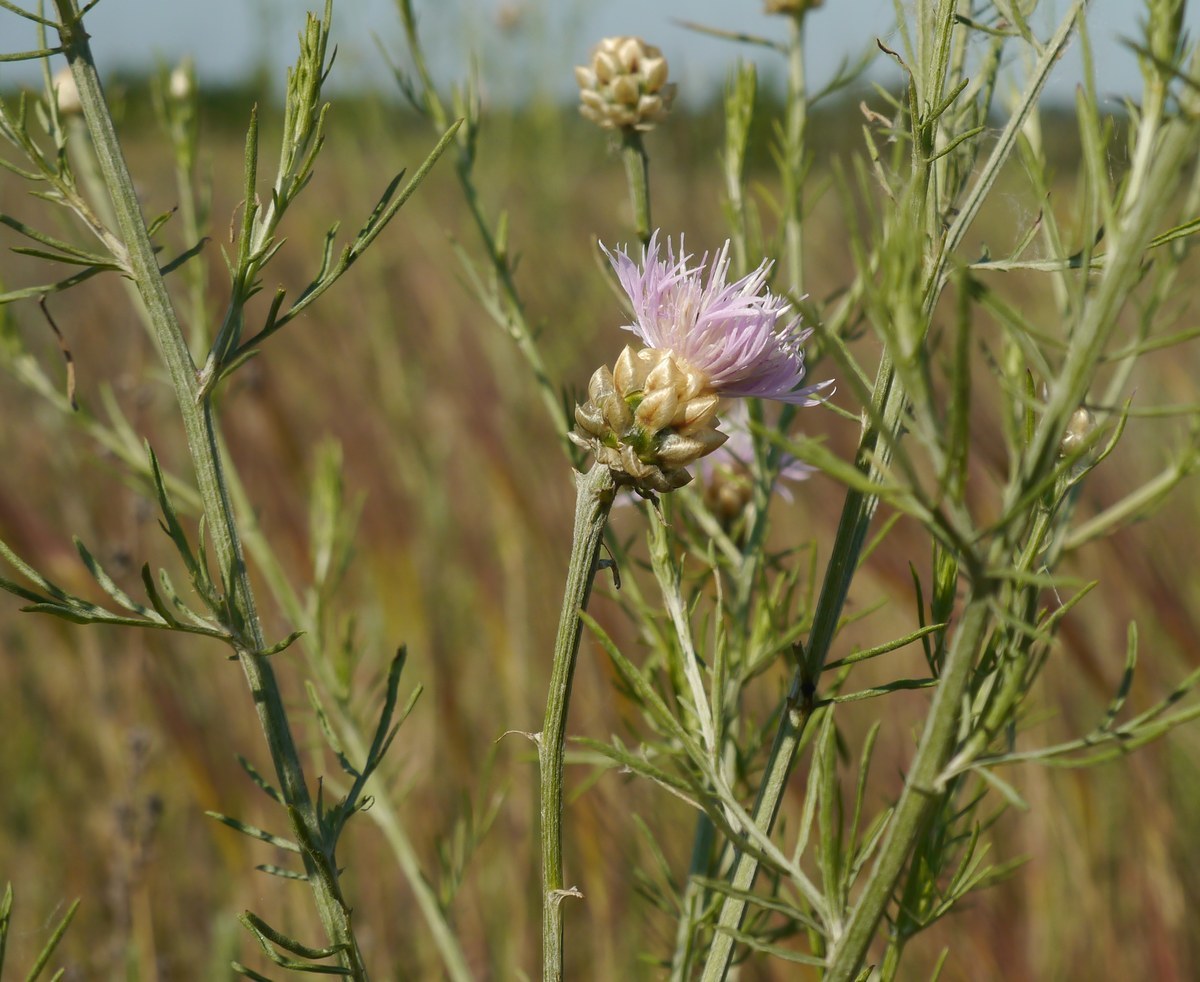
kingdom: Plantae
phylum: Tracheophyta
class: Magnoliopsida
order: Asterales
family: Asteraceae
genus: Centaurea
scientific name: Centaurea protomargaritacea
